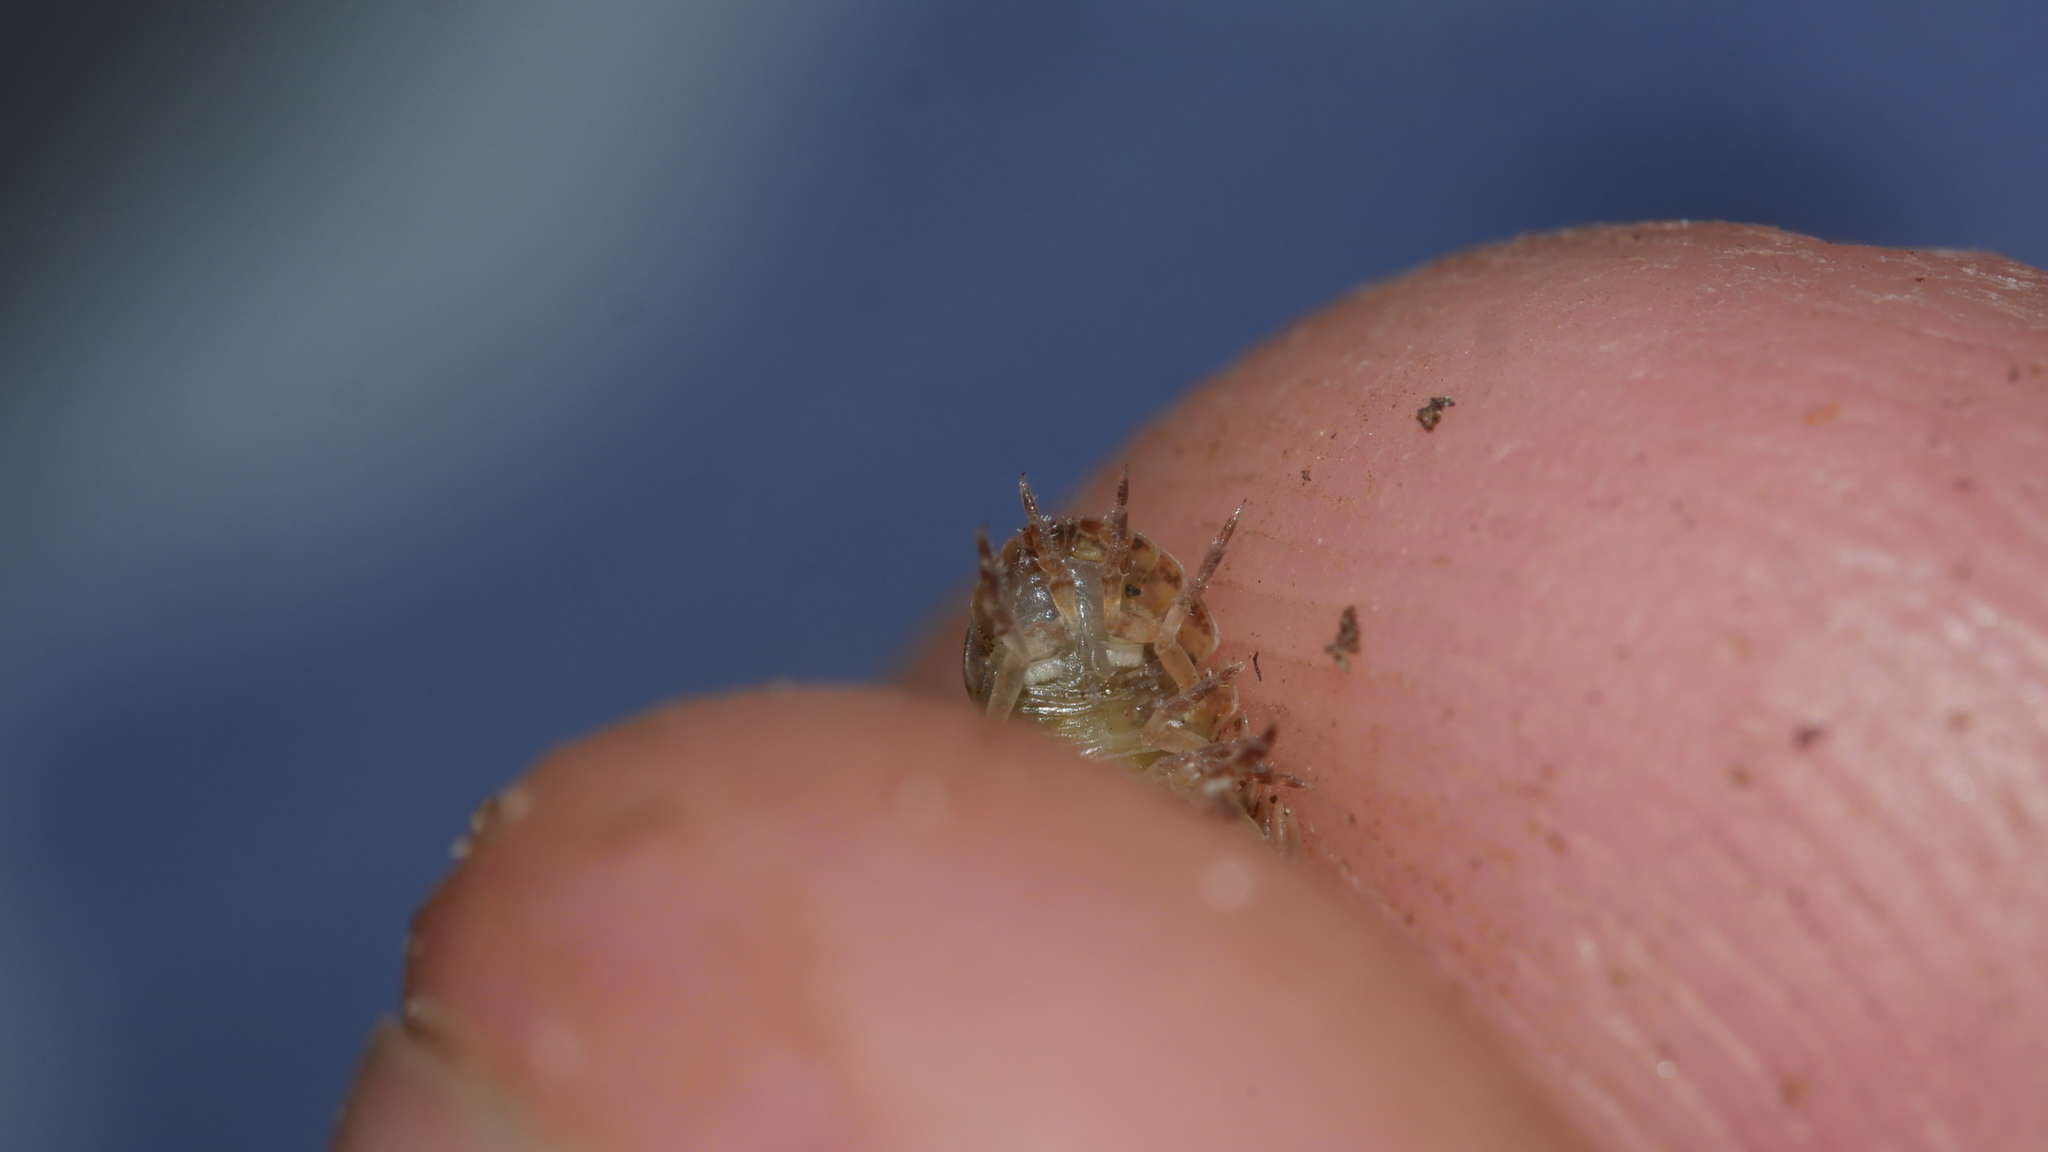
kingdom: Animalia
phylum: Arthropoda
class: Malacostraca
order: Isopoda
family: Armadillidiidae
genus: Armadillidium
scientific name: Armadillidium vulgare
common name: Common pill woodlouse
